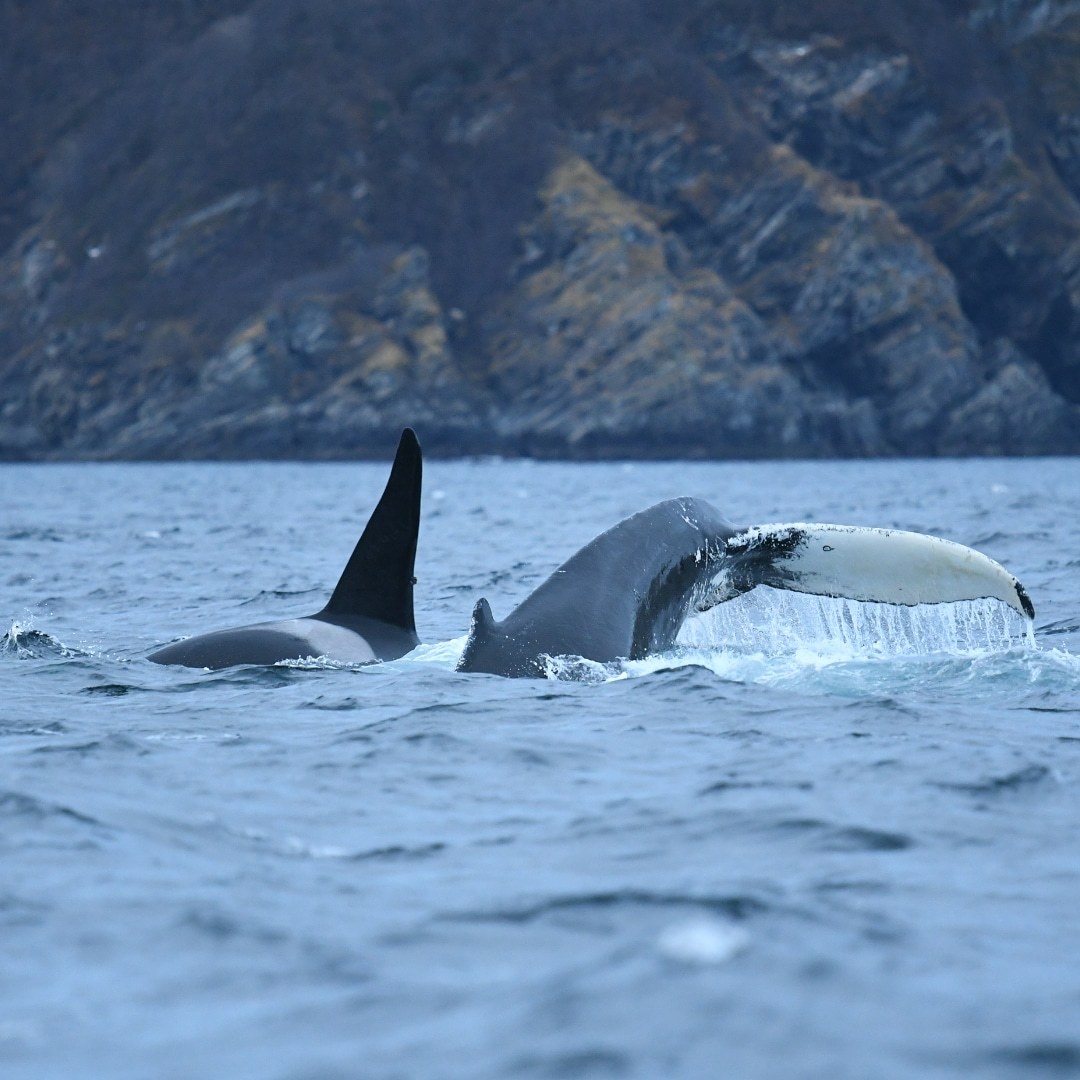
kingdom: Animalia
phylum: Chordata
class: Mammalia
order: Cetacea
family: Balaenopteridae
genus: Megaptera
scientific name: Megaptera novaeangliae
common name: Humpback whale
